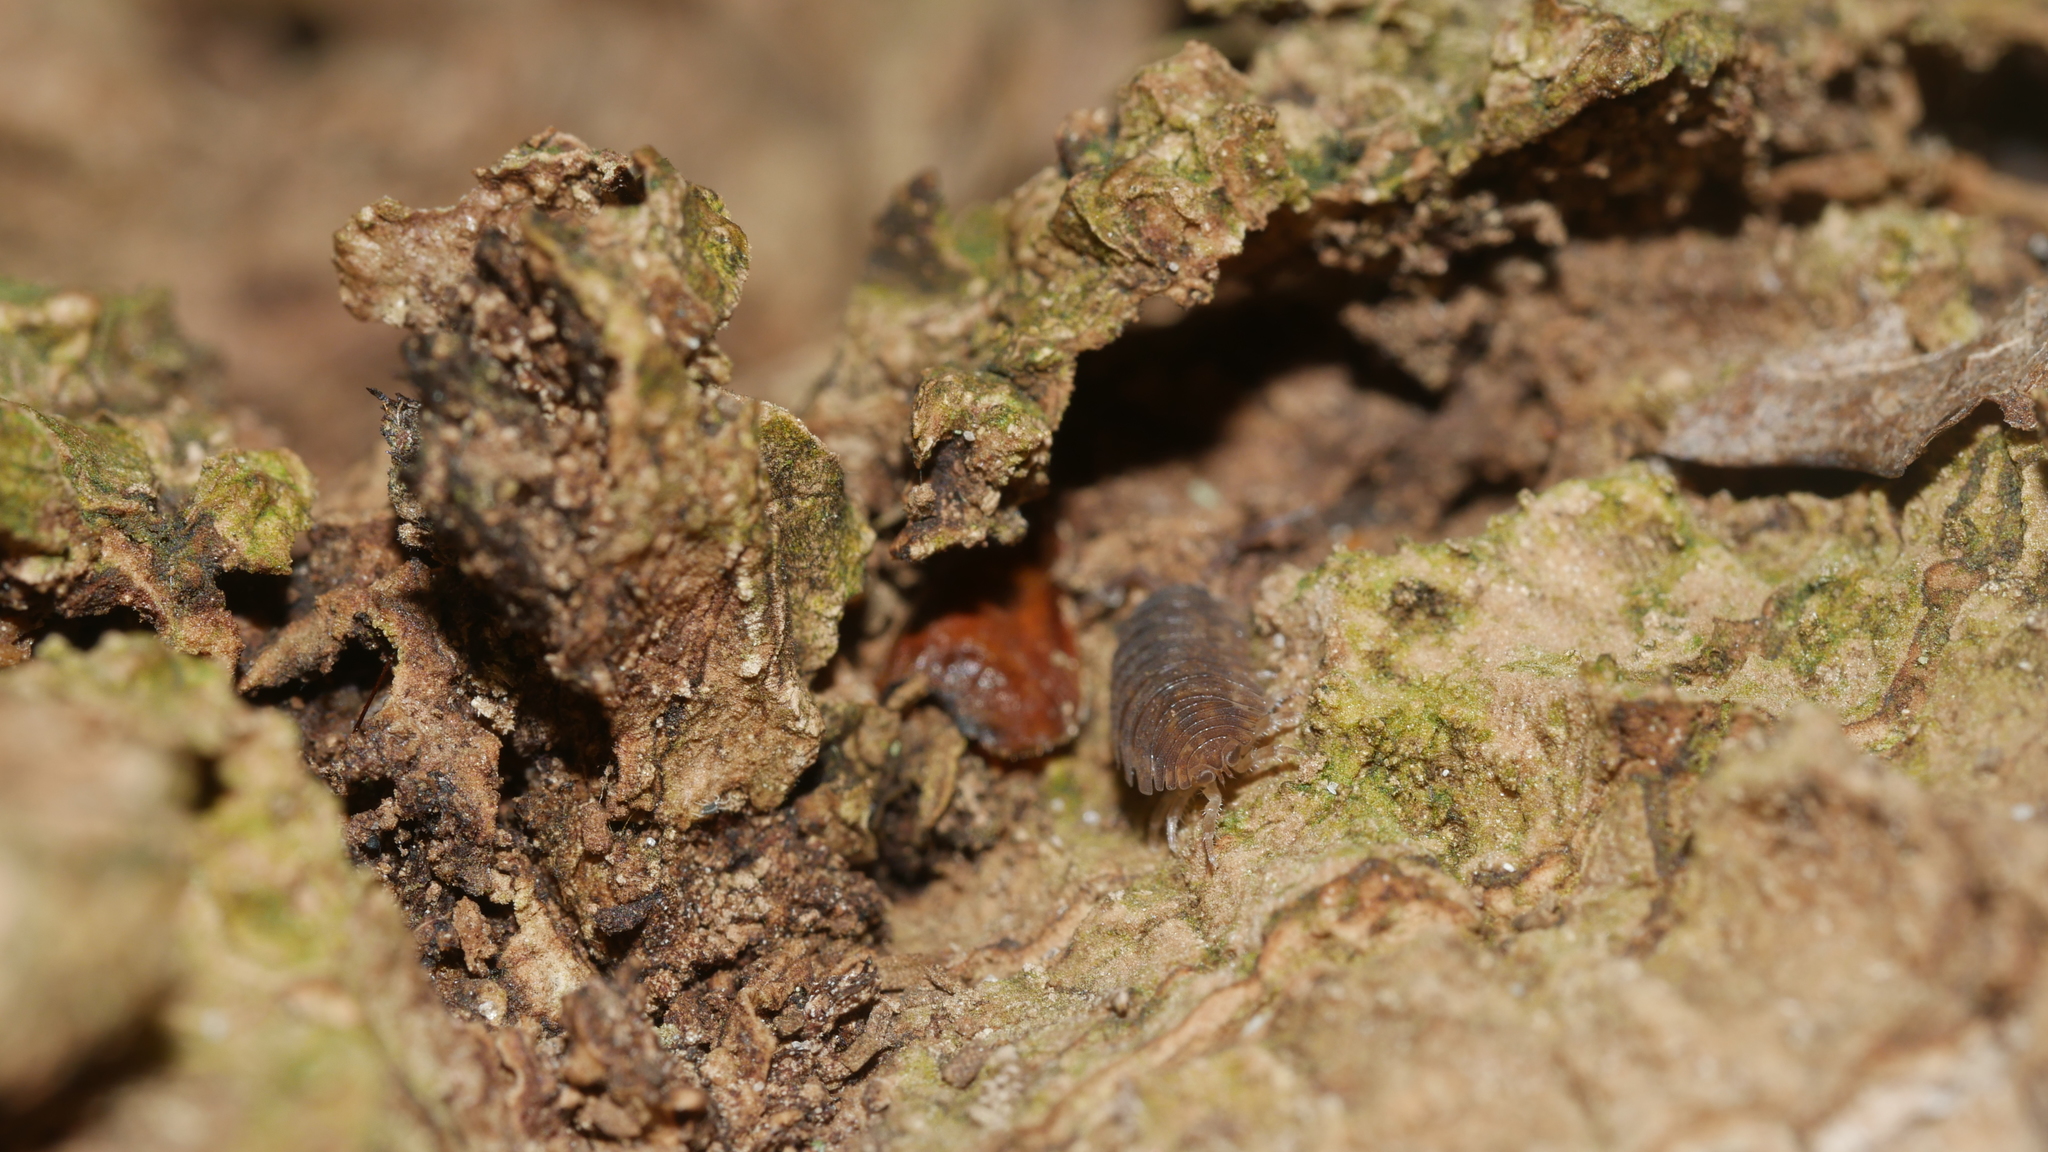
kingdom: Animalia
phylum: Arthropoda
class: Malacostraca
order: Isopoda
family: Porcellionidae
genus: Porcellio
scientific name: Porcellio scaber
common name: Common rough woodlouse
